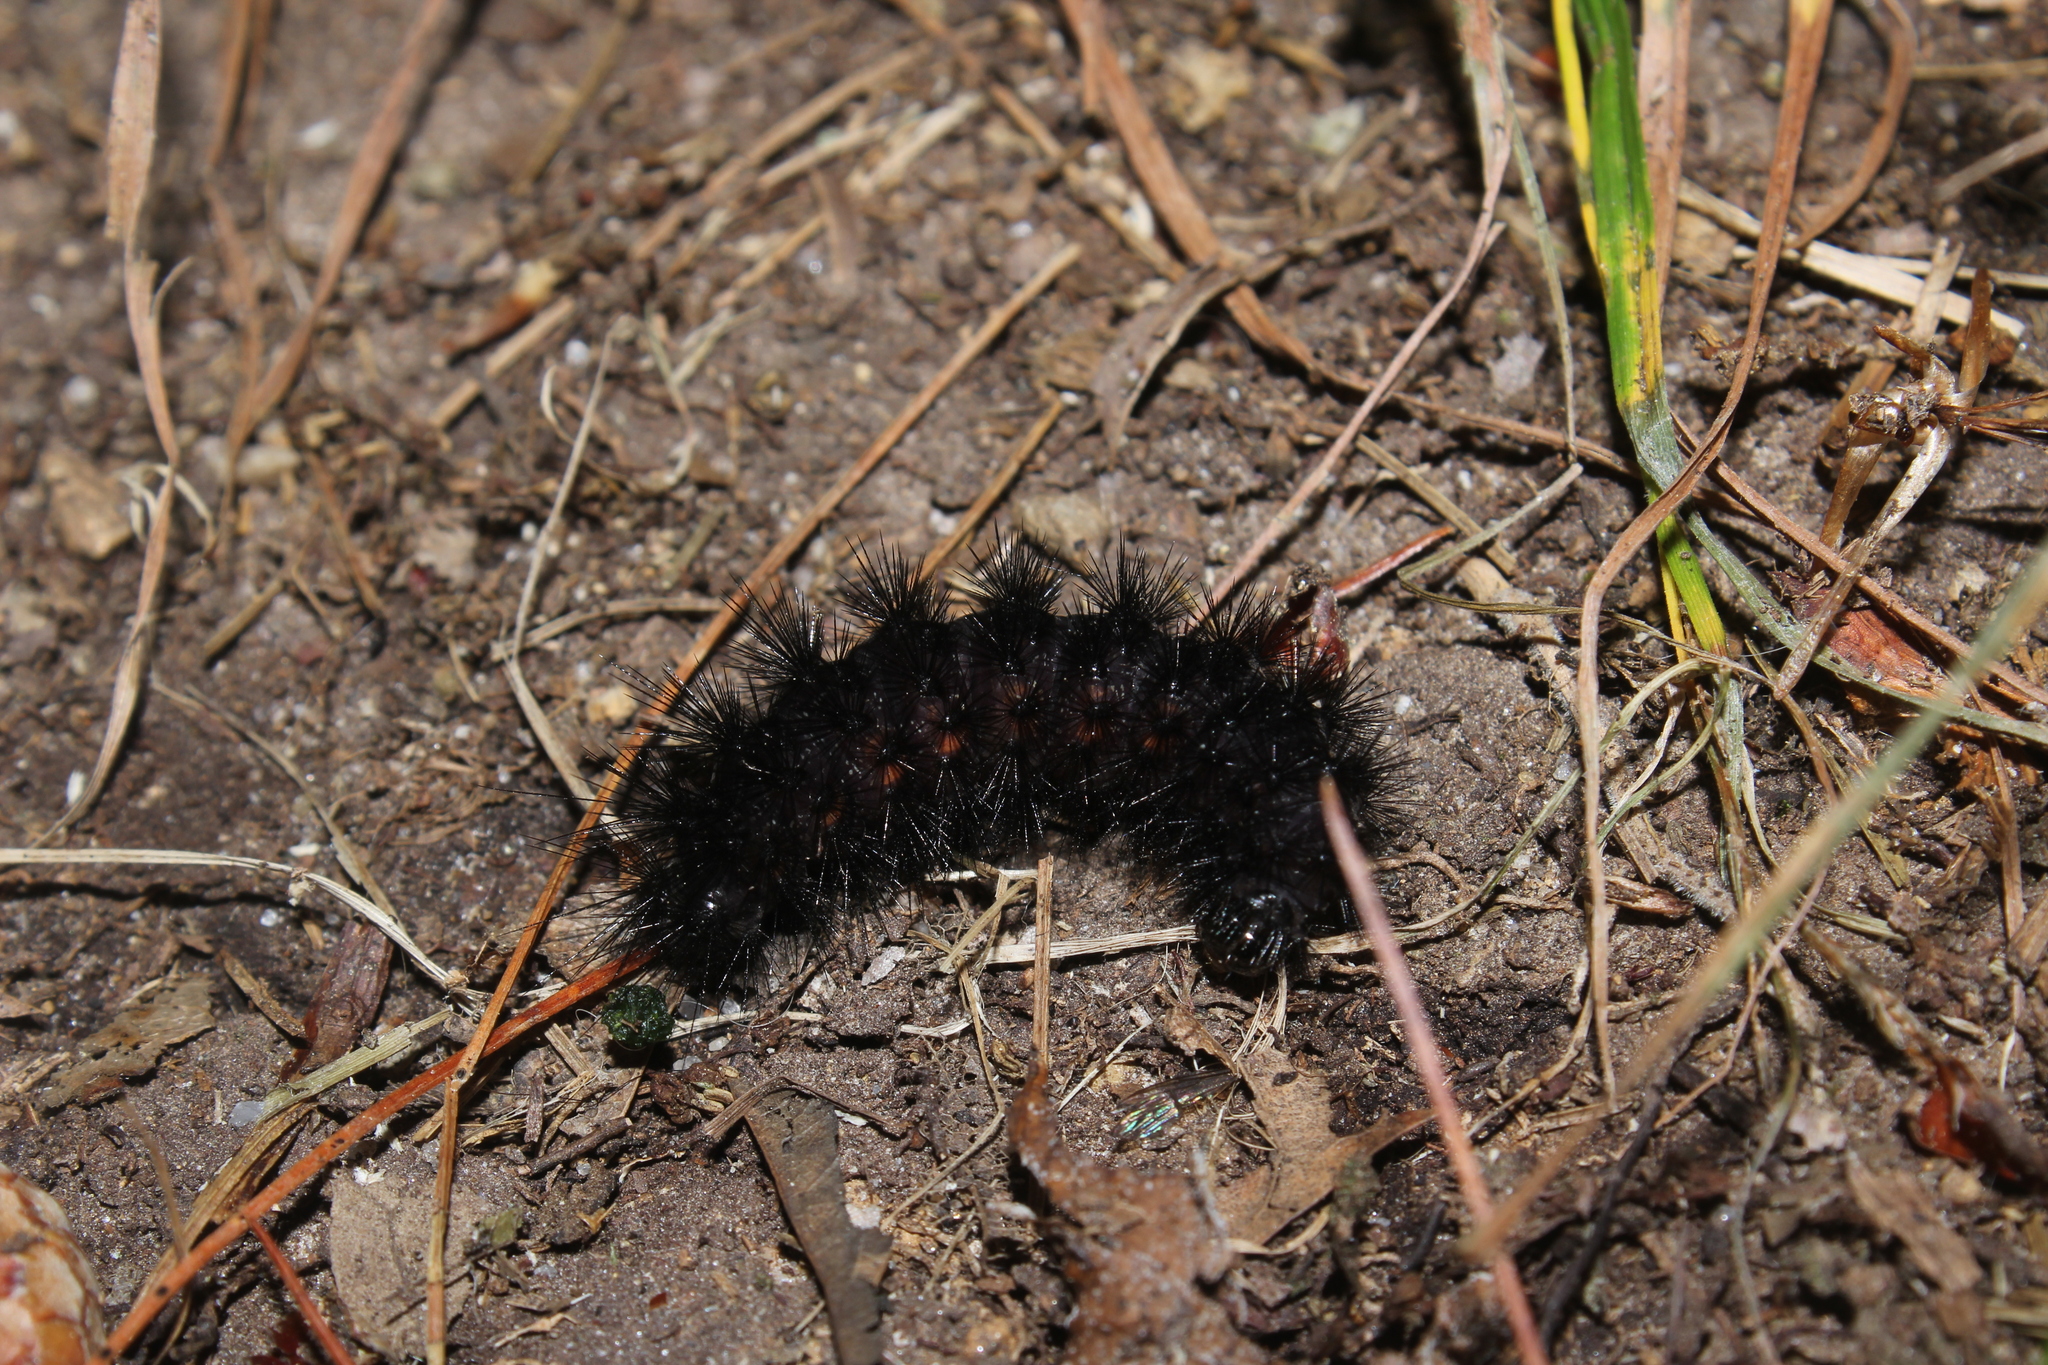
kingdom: Animalia
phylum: Arthropoda
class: Insecta
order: Lepidoptera
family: Erebidae
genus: Hypercompe
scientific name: Hypercompe scribonia
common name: Giant leopard moth
